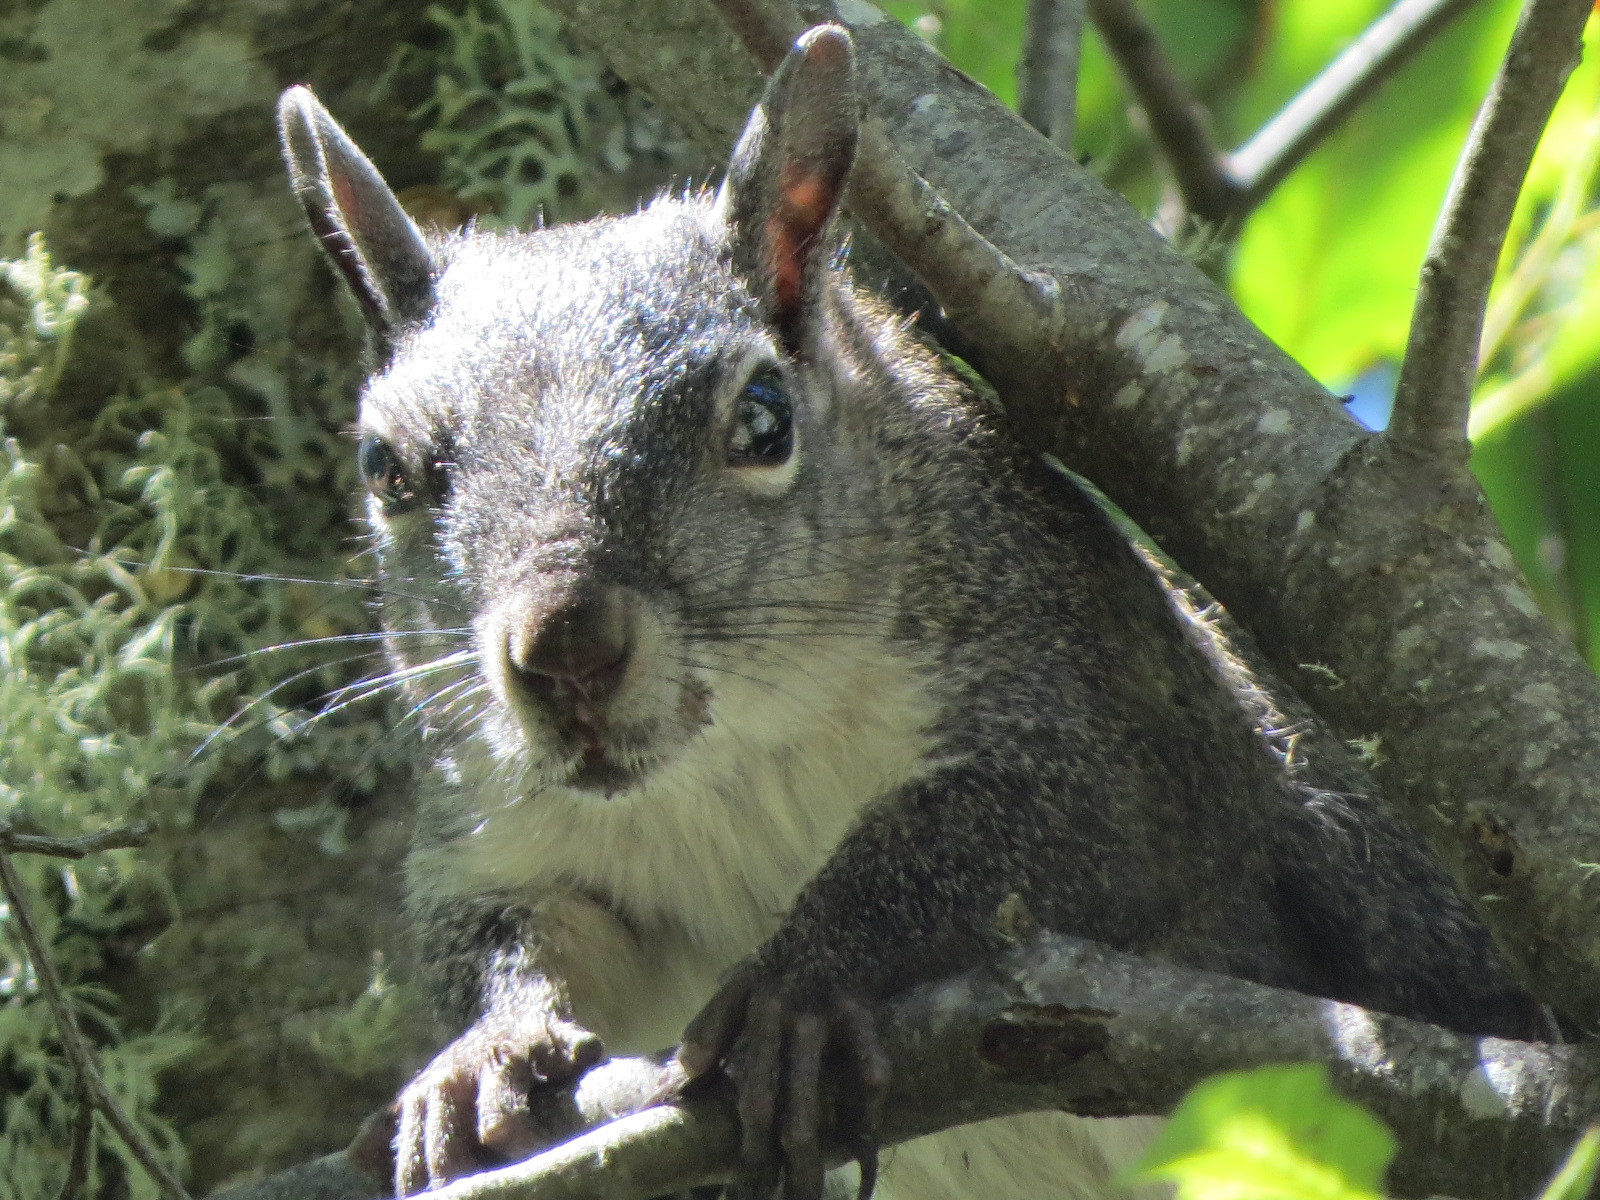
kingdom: Animalia
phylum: Chordata
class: Mammalia
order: Rodentia
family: Sciuridae
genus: Sciurus
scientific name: Sciurus griseus
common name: Western gray squirrel
